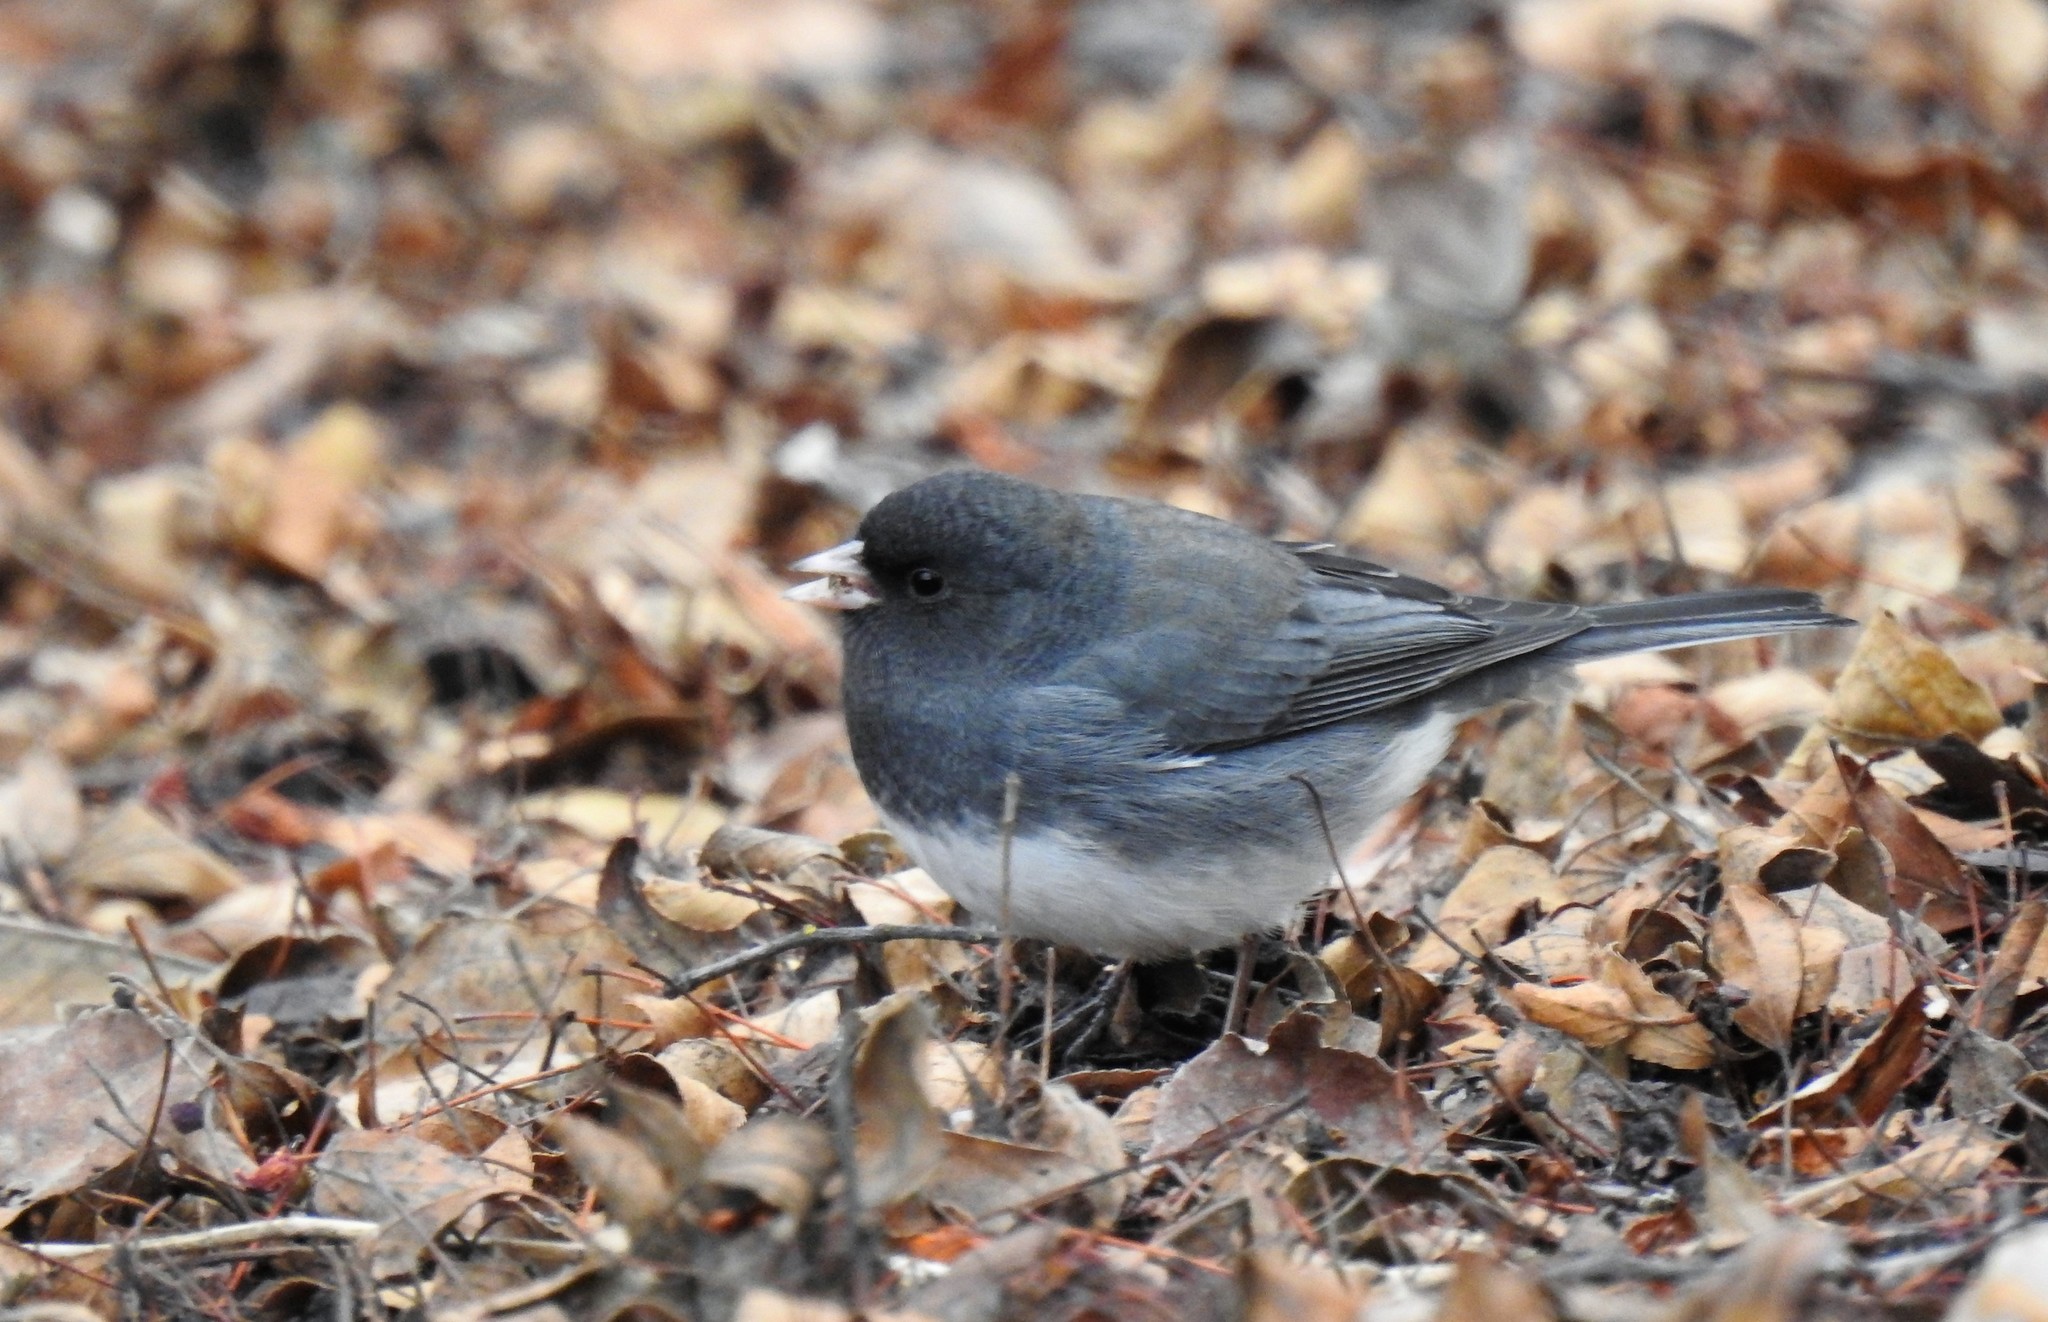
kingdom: Animalia
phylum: Chordata
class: Aves
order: Passeriformes
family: Passerellidae
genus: Junco
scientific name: Junco hyemalis
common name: Dark-eyed junco
